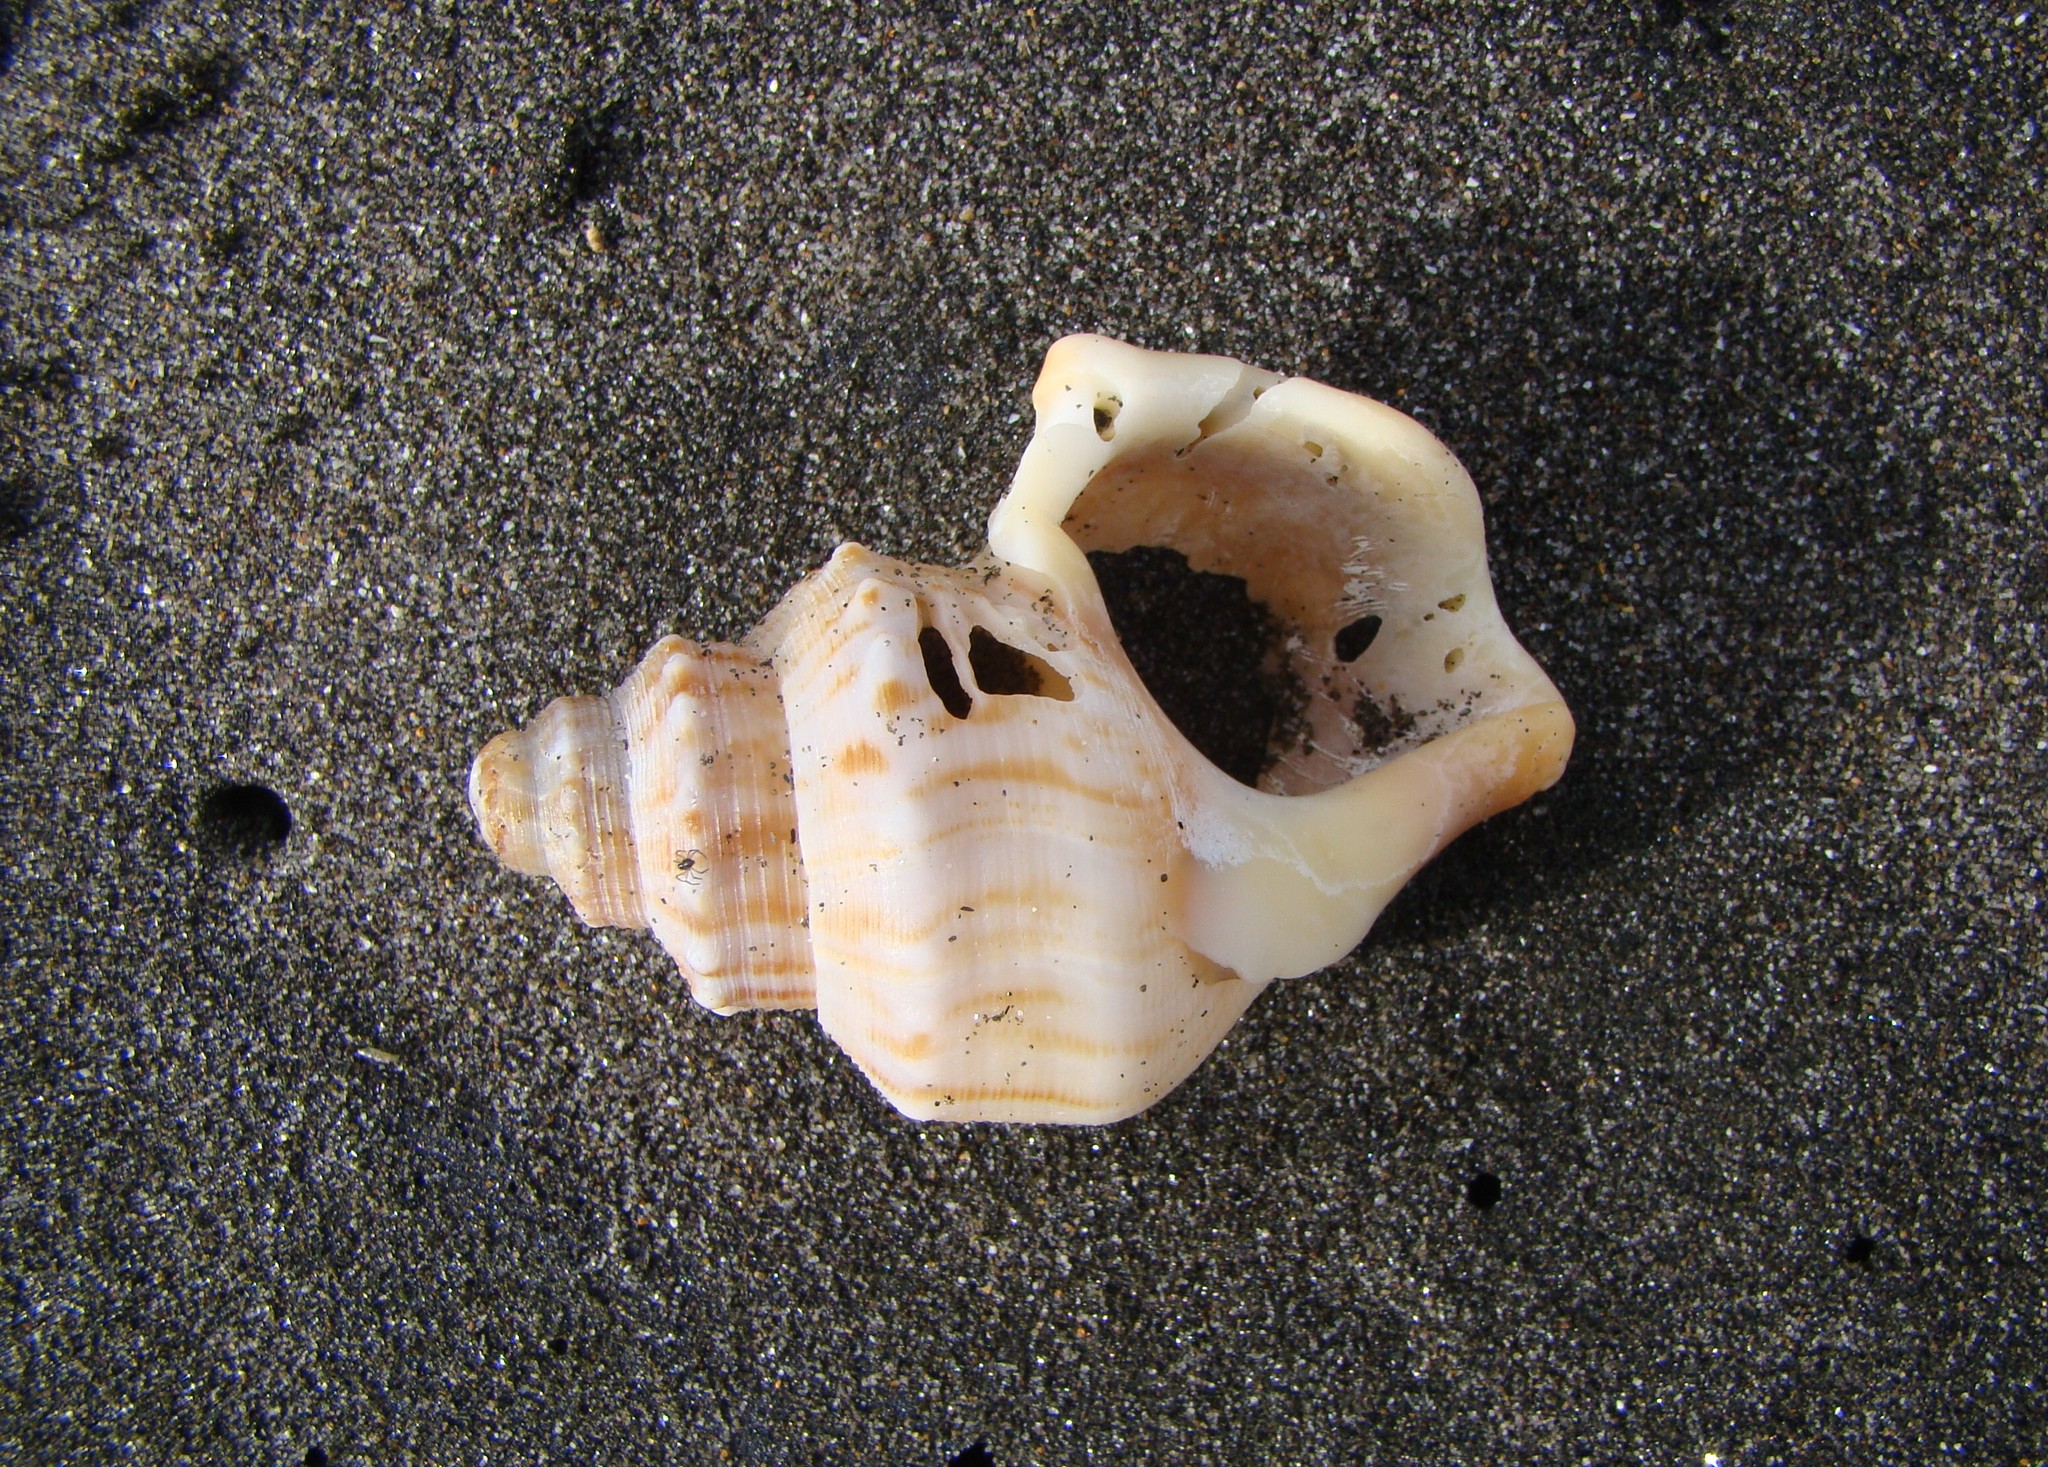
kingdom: Animalia
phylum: Mollusca
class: Gastropoda
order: Littorinimorpha
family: Struthiolariidae
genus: Struthiolaria
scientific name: Struthiolaria papulosa
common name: Large ostrich foot
